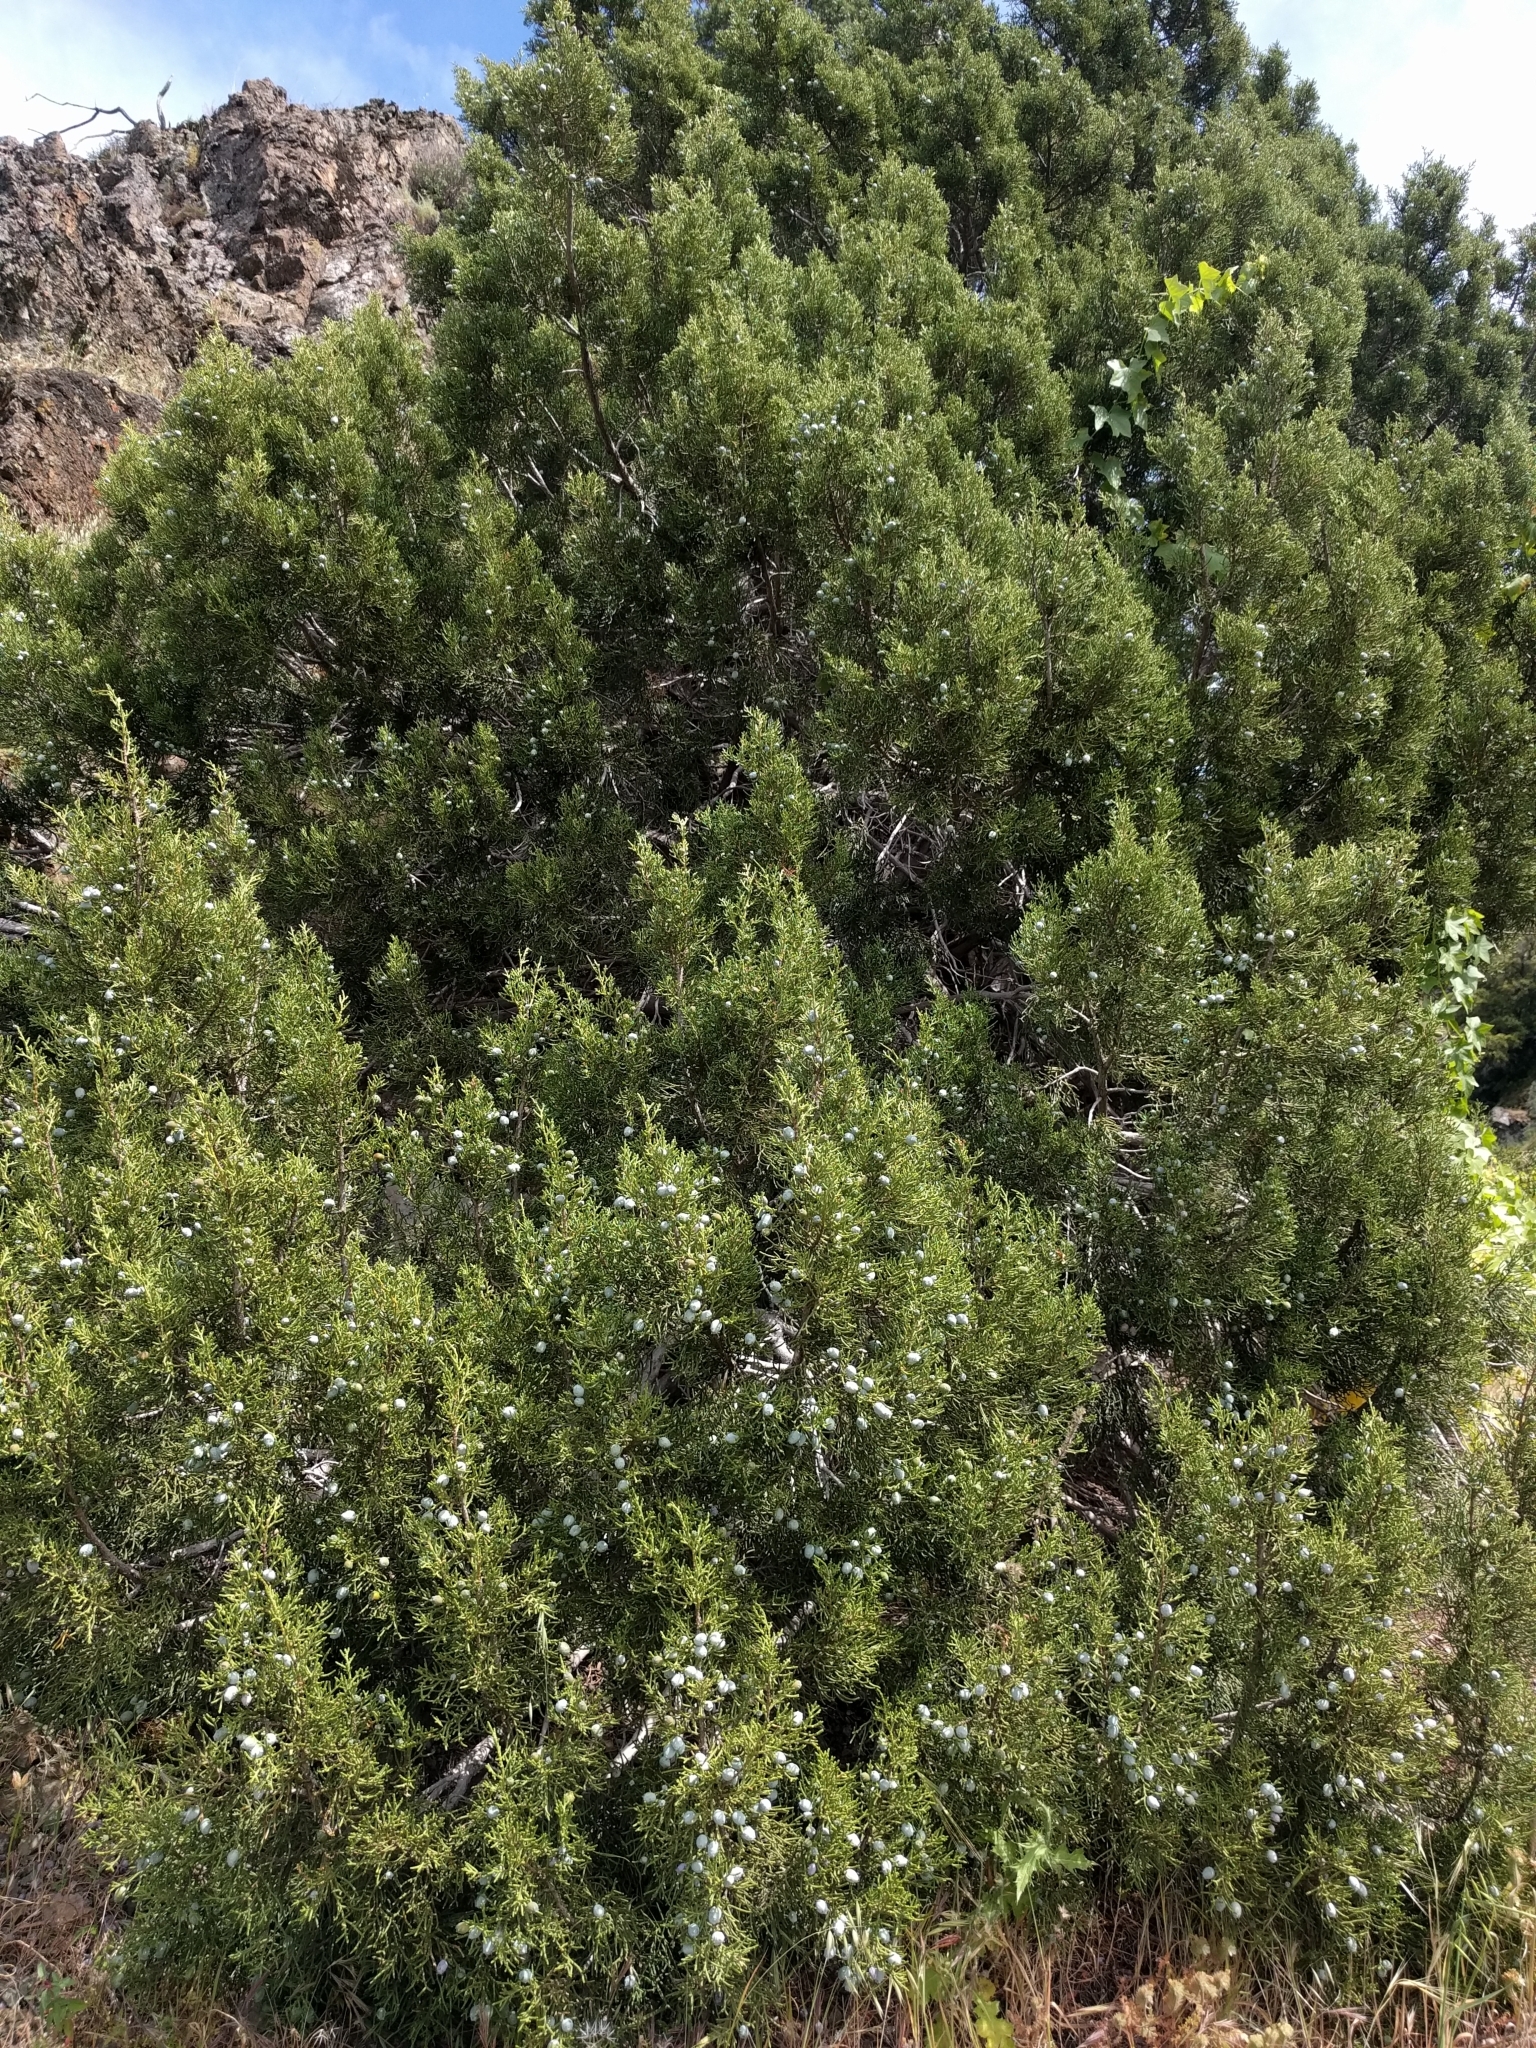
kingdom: Plantae
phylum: Tracheophyta
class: Pinopsida
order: Pinales
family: Cupressaceae
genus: Juniperus
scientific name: Juniperus californica
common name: California juniper
